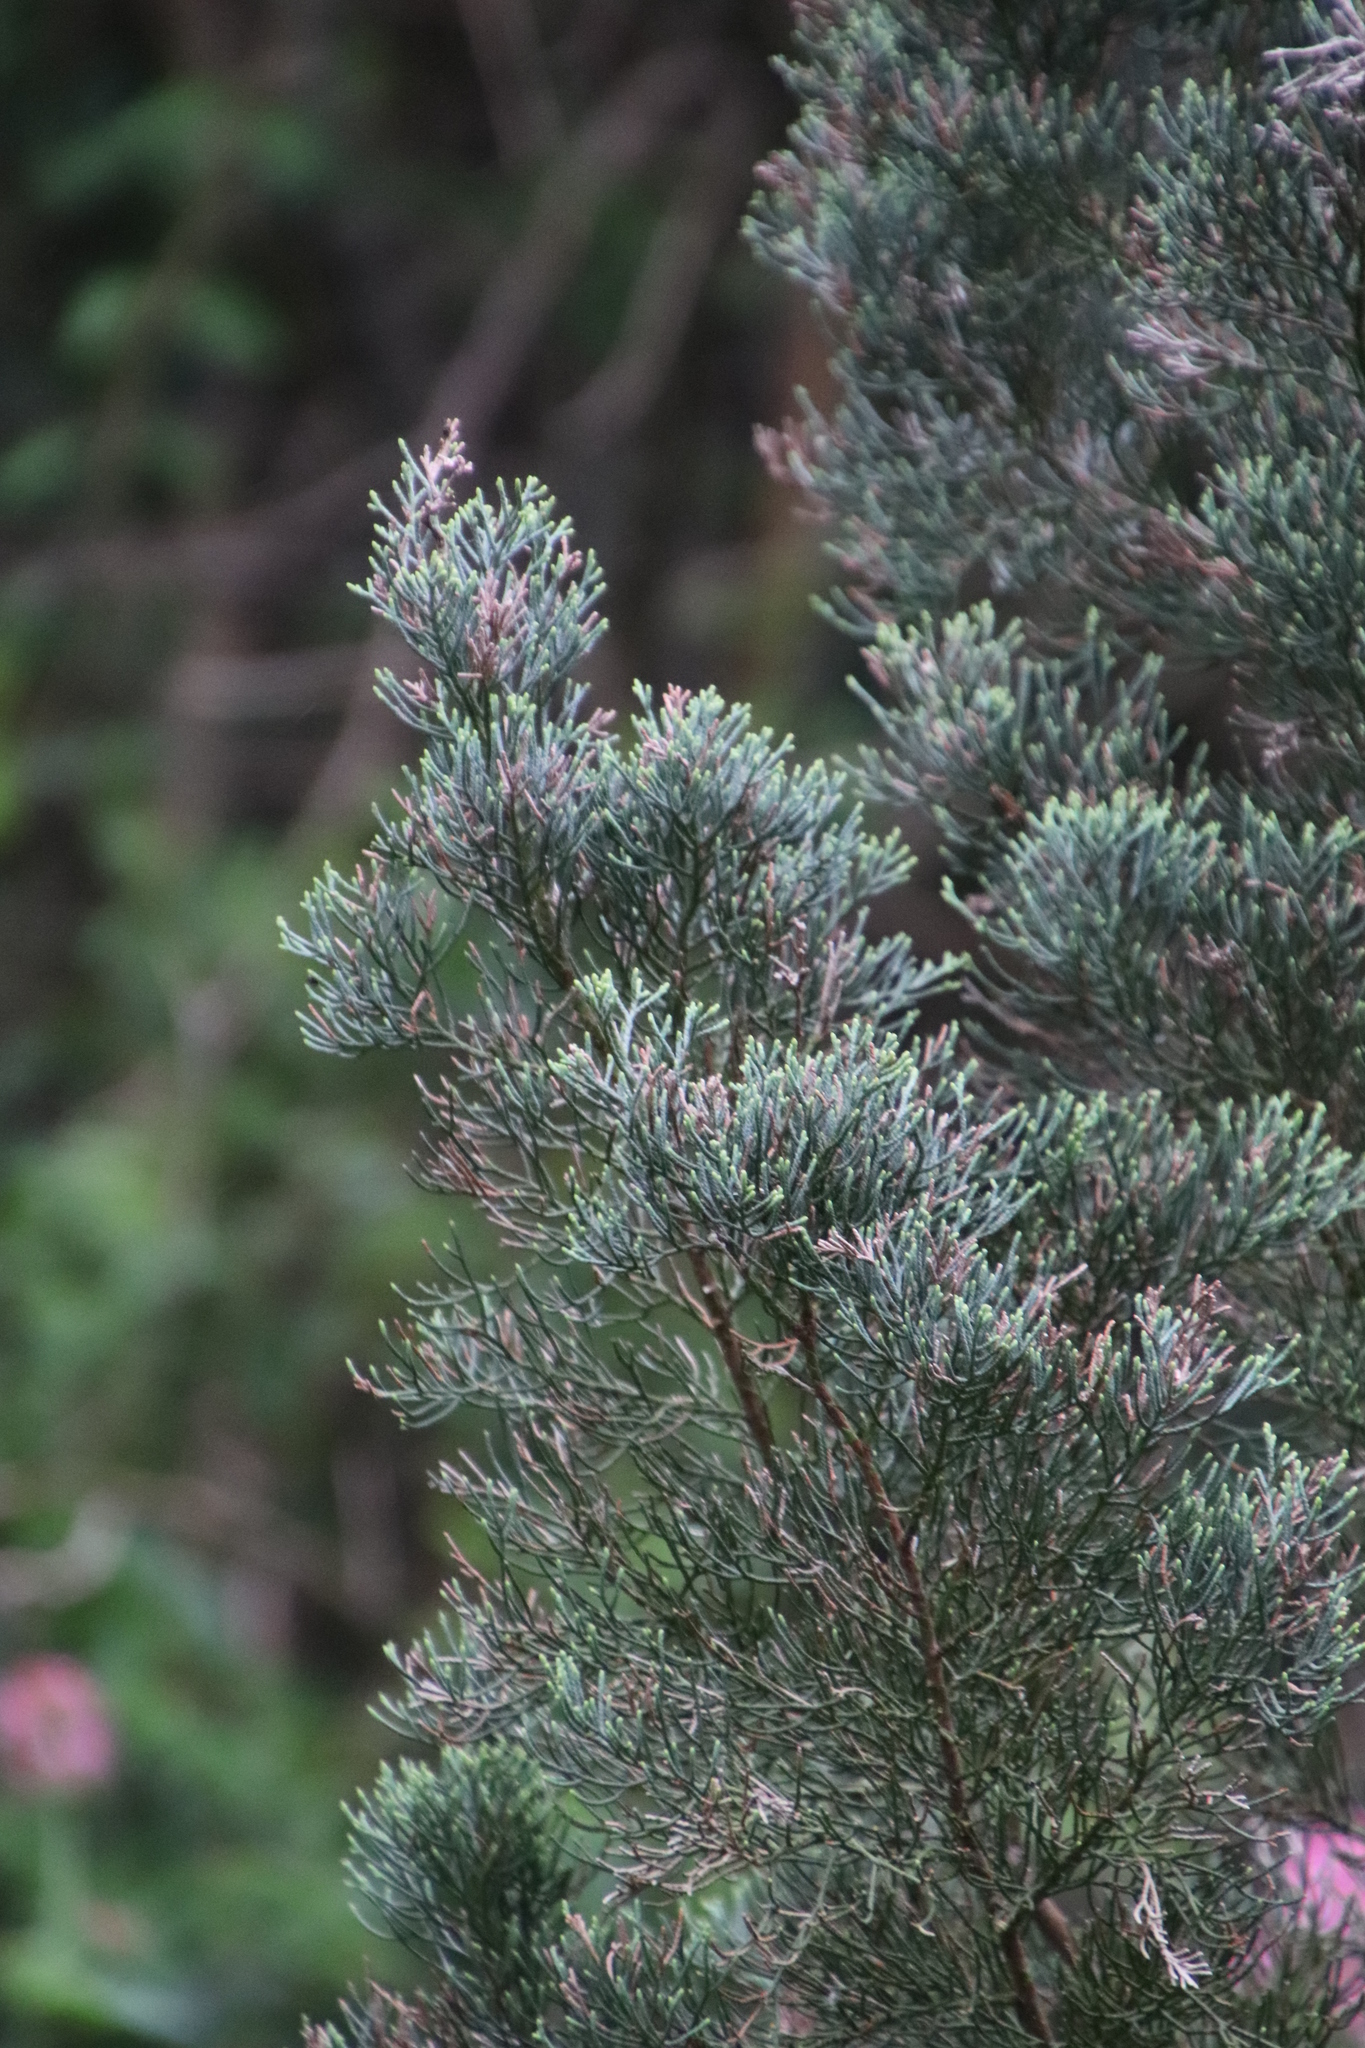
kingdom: Plantae
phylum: Tracheophyta
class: Pinopsida
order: Pinales
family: Cupressaceae
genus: Widdringtonia
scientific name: Widdringtonia nodiflora
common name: Cape cypress
